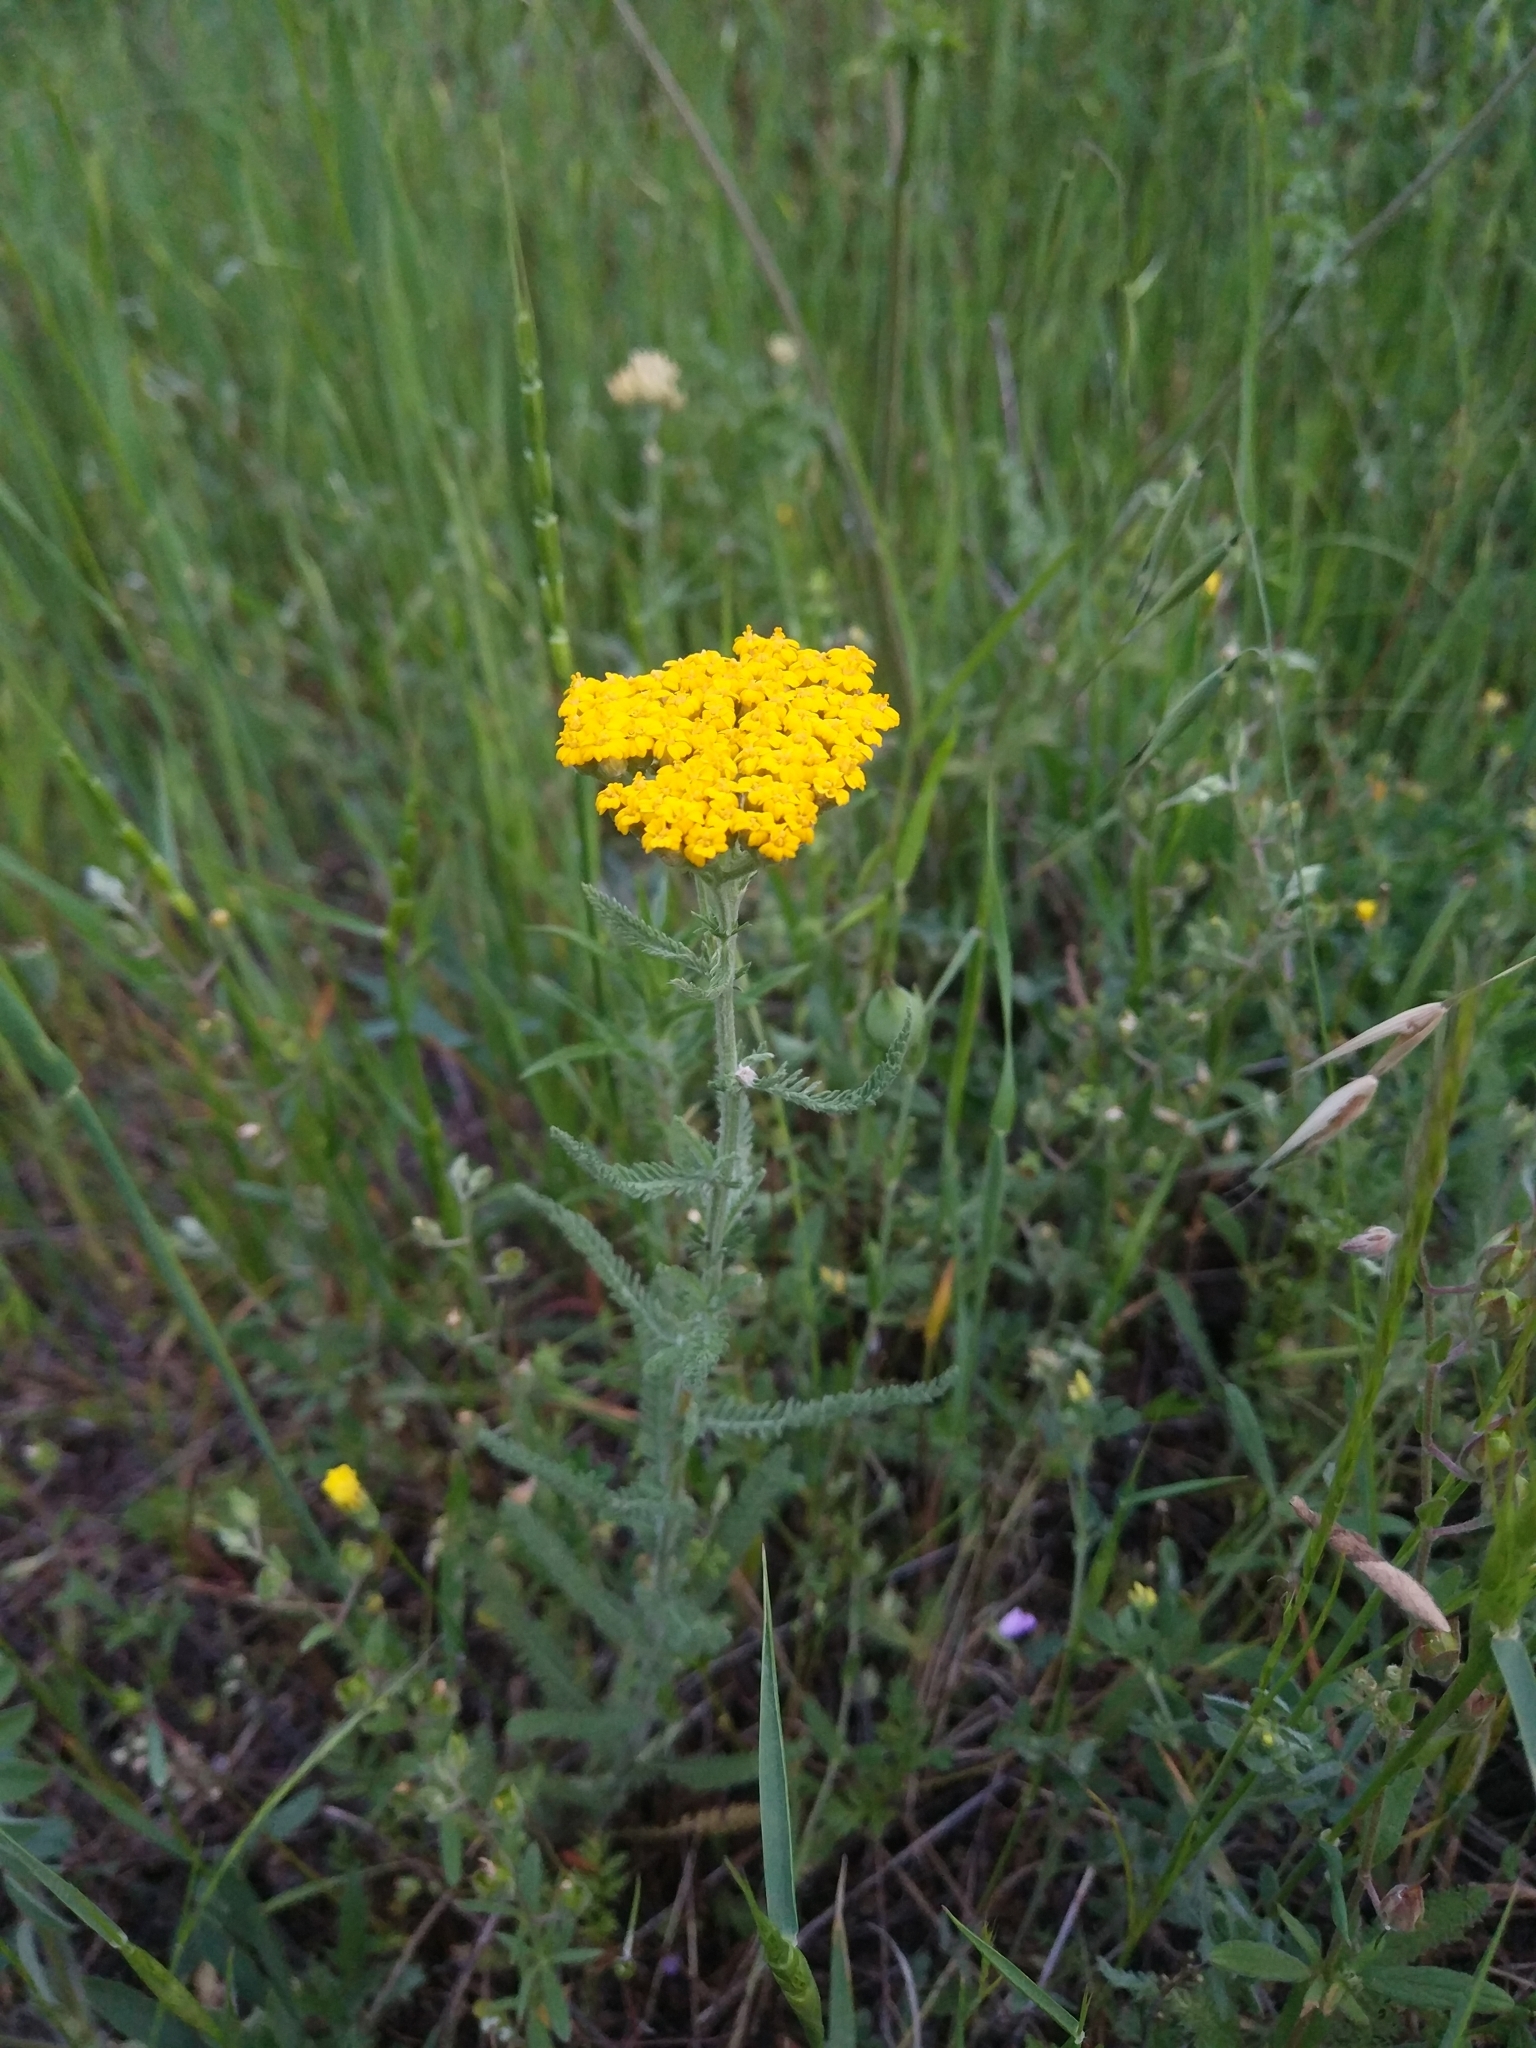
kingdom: Plantae
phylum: Tracheophyta
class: Magnoliopsida
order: Asterales
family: Asteraceae
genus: Achillea
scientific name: Achillea arabica
